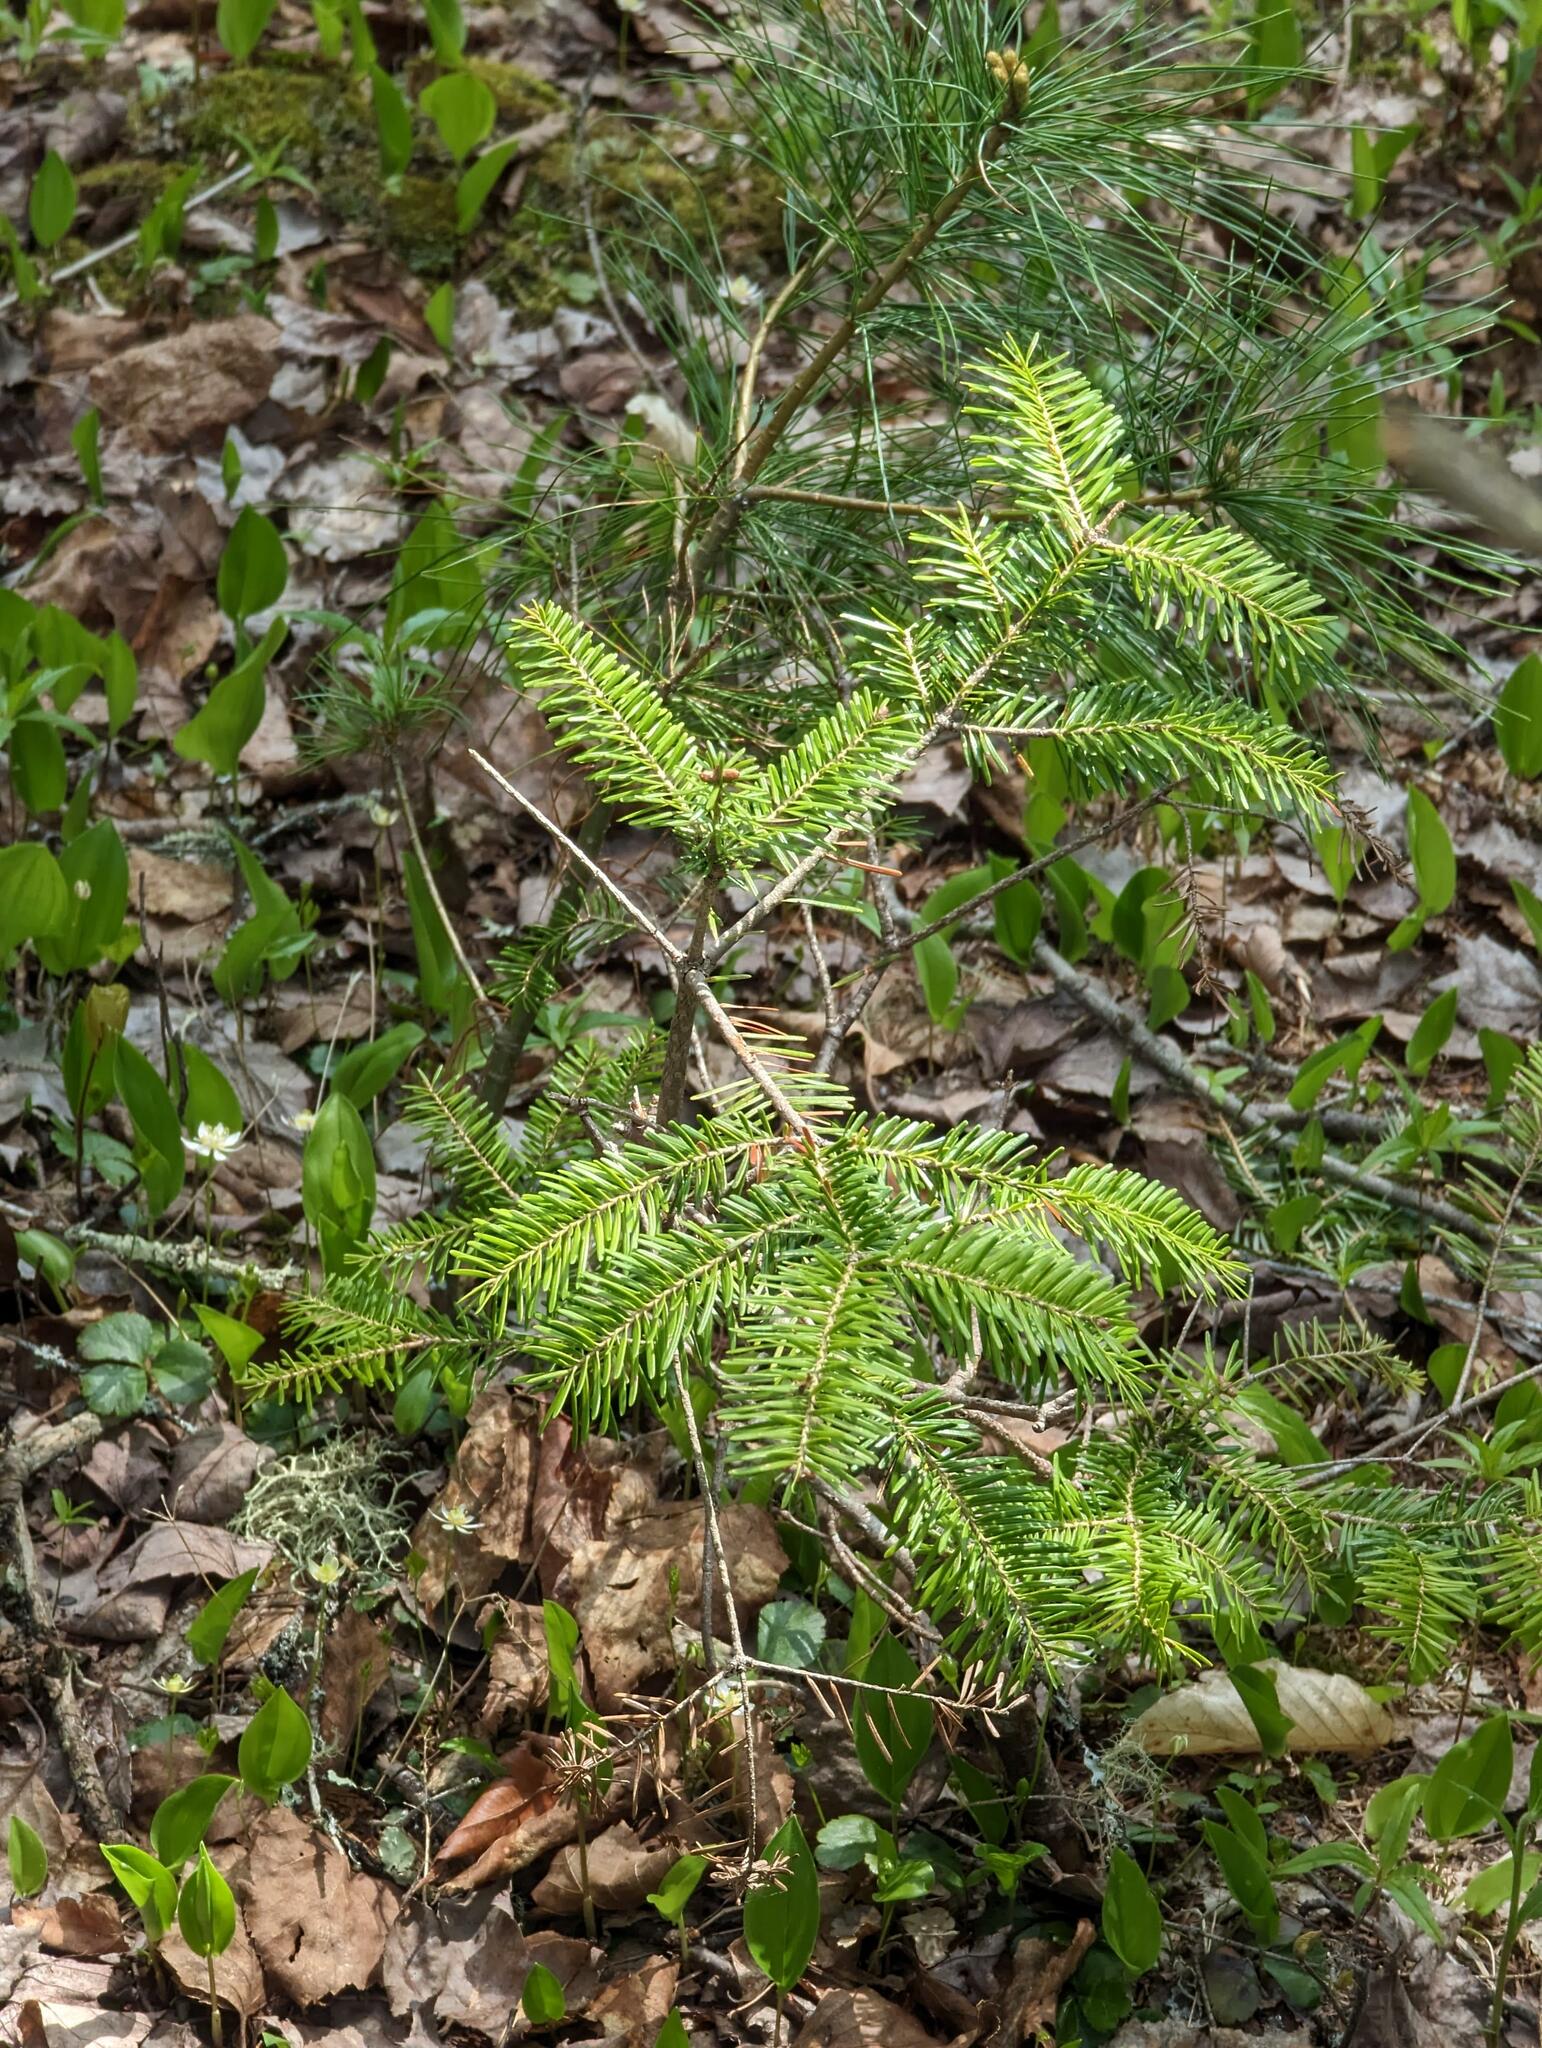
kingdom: Plantae
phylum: Tracheophyta
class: Pinopsida
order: Pinales
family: Pinaceae
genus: Abies
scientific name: Abies balsamea
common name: Balsam fir
